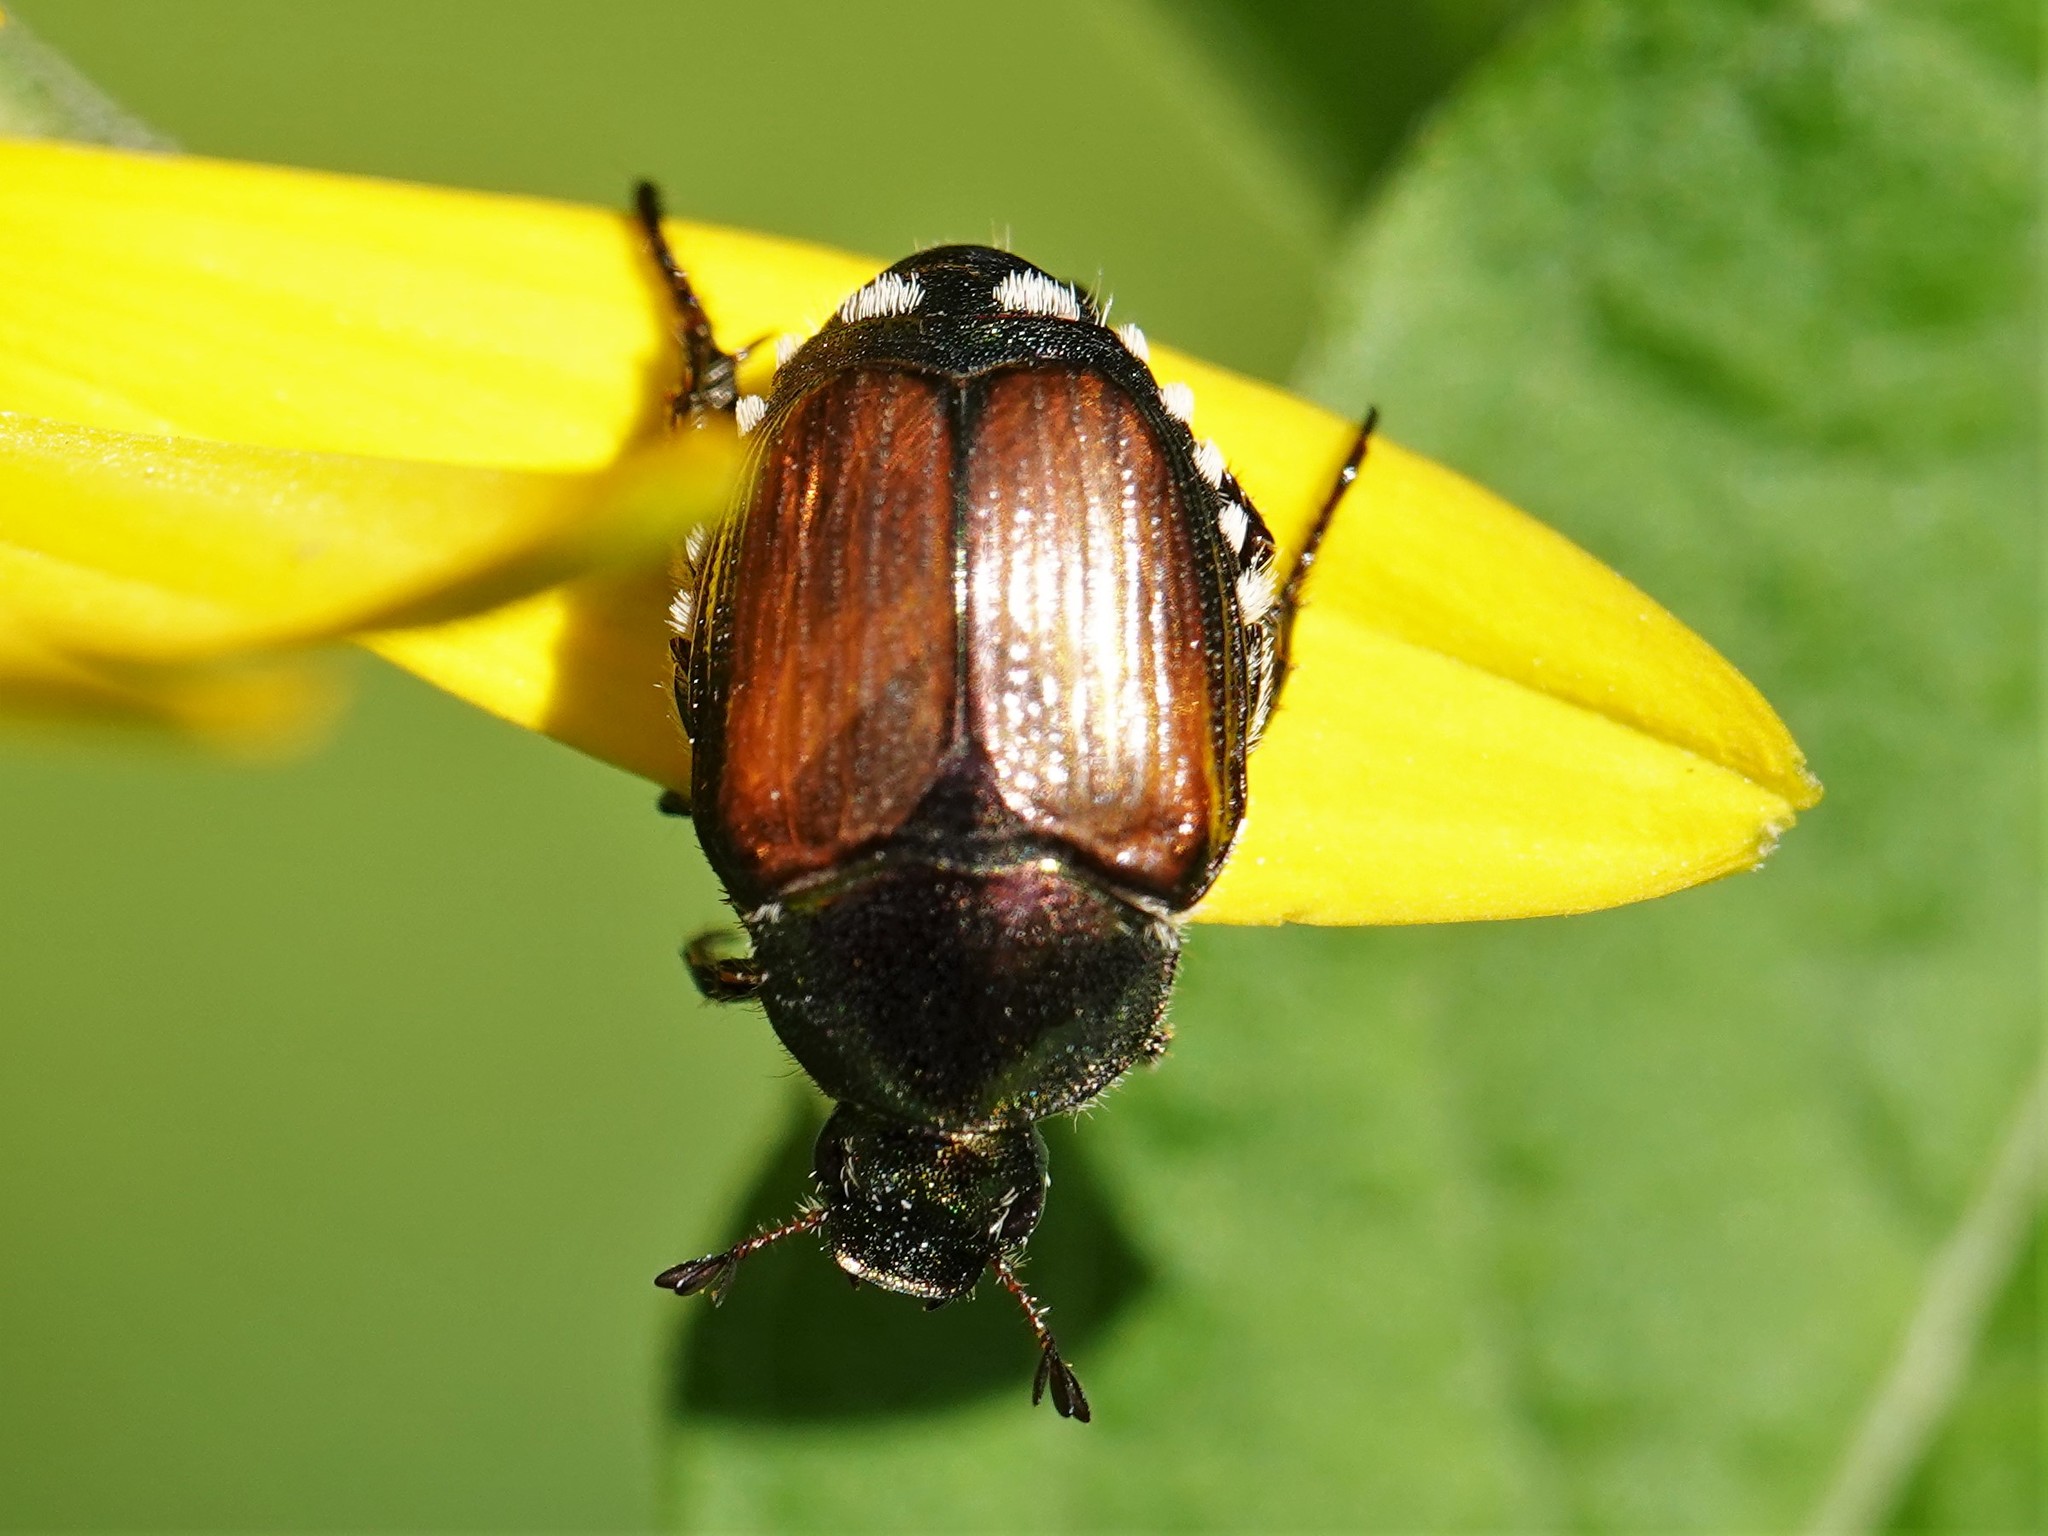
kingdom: Animalia
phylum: Arthropoda
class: Insecta
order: Coleoptera
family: Scarabaeidae
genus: Popillia
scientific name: Popillia japonica
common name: Japanese beetle
